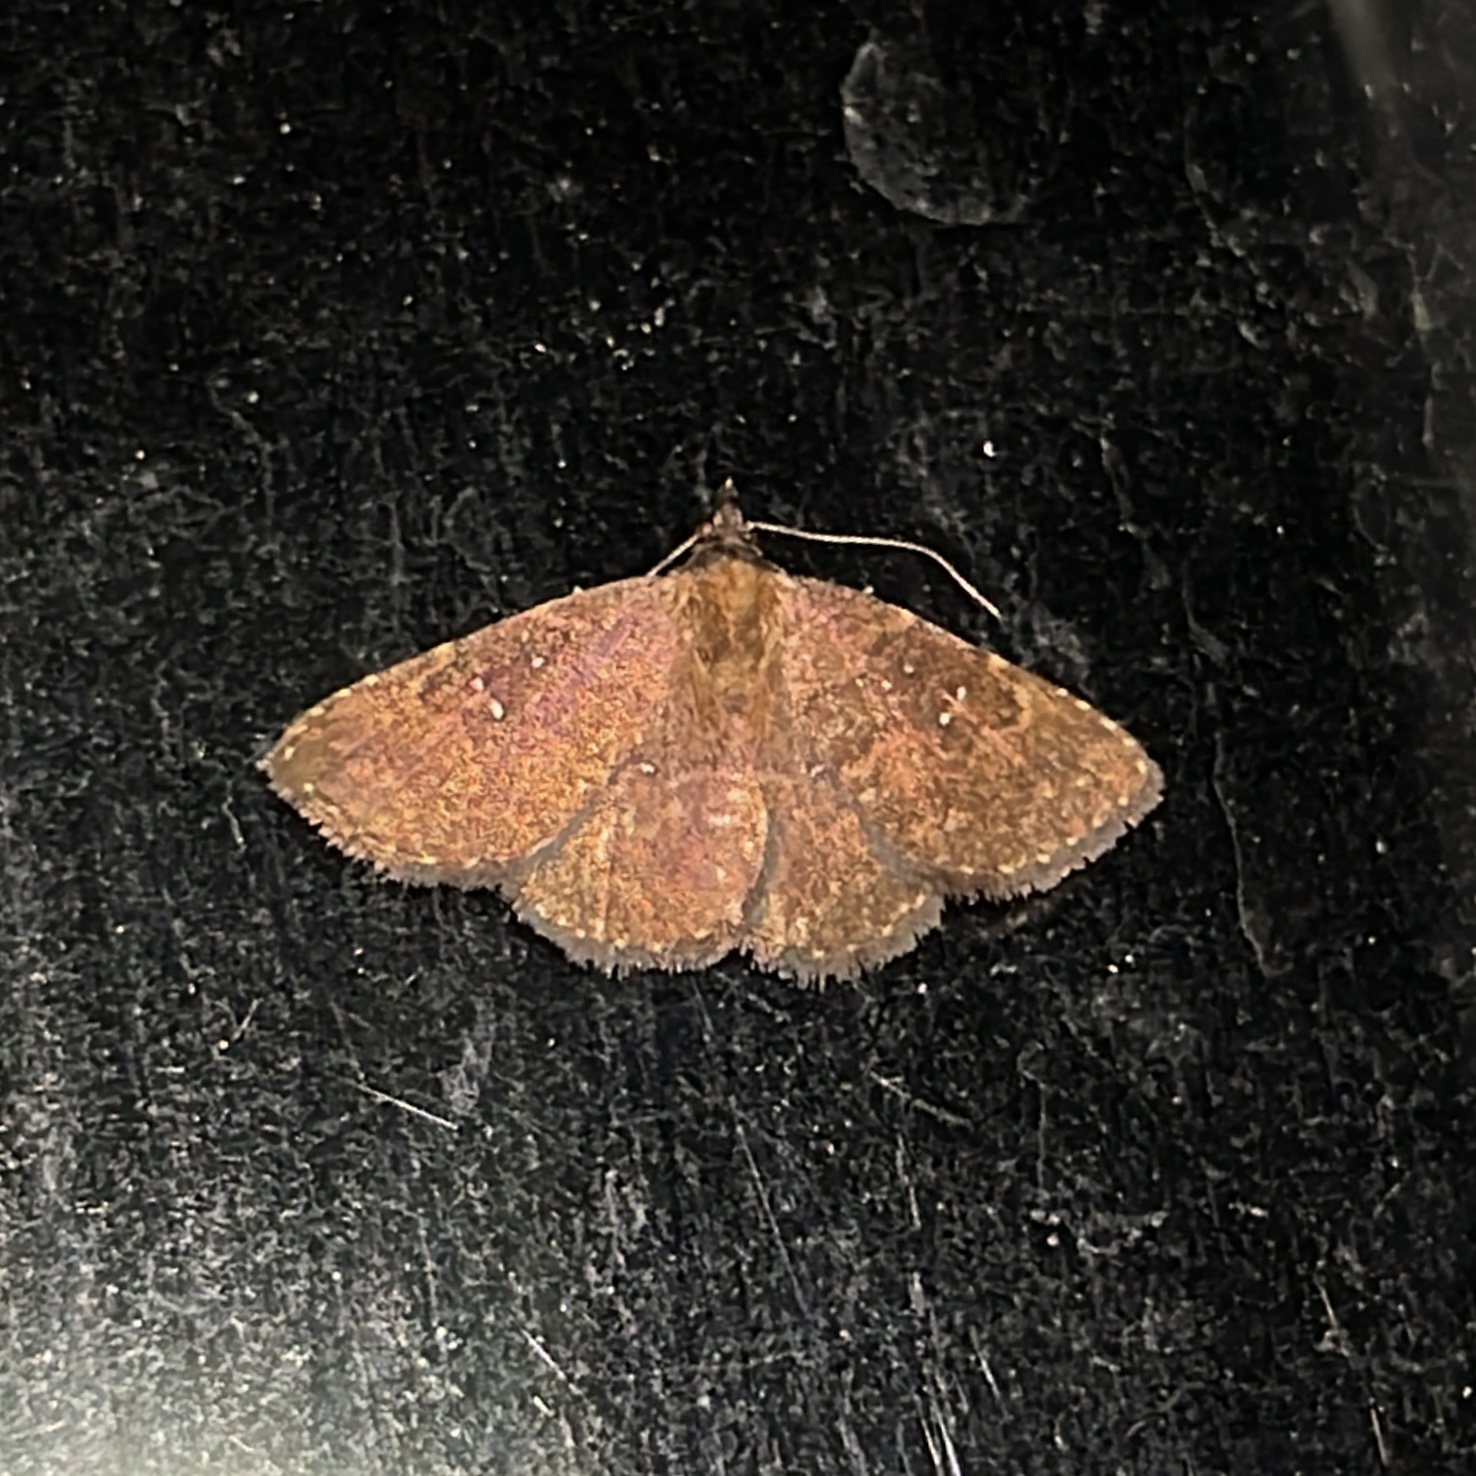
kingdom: Animalia
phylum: Arthropoda
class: Insecta
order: Lepidoptera
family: Erebidae
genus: Ostha
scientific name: Ostha coryphata
